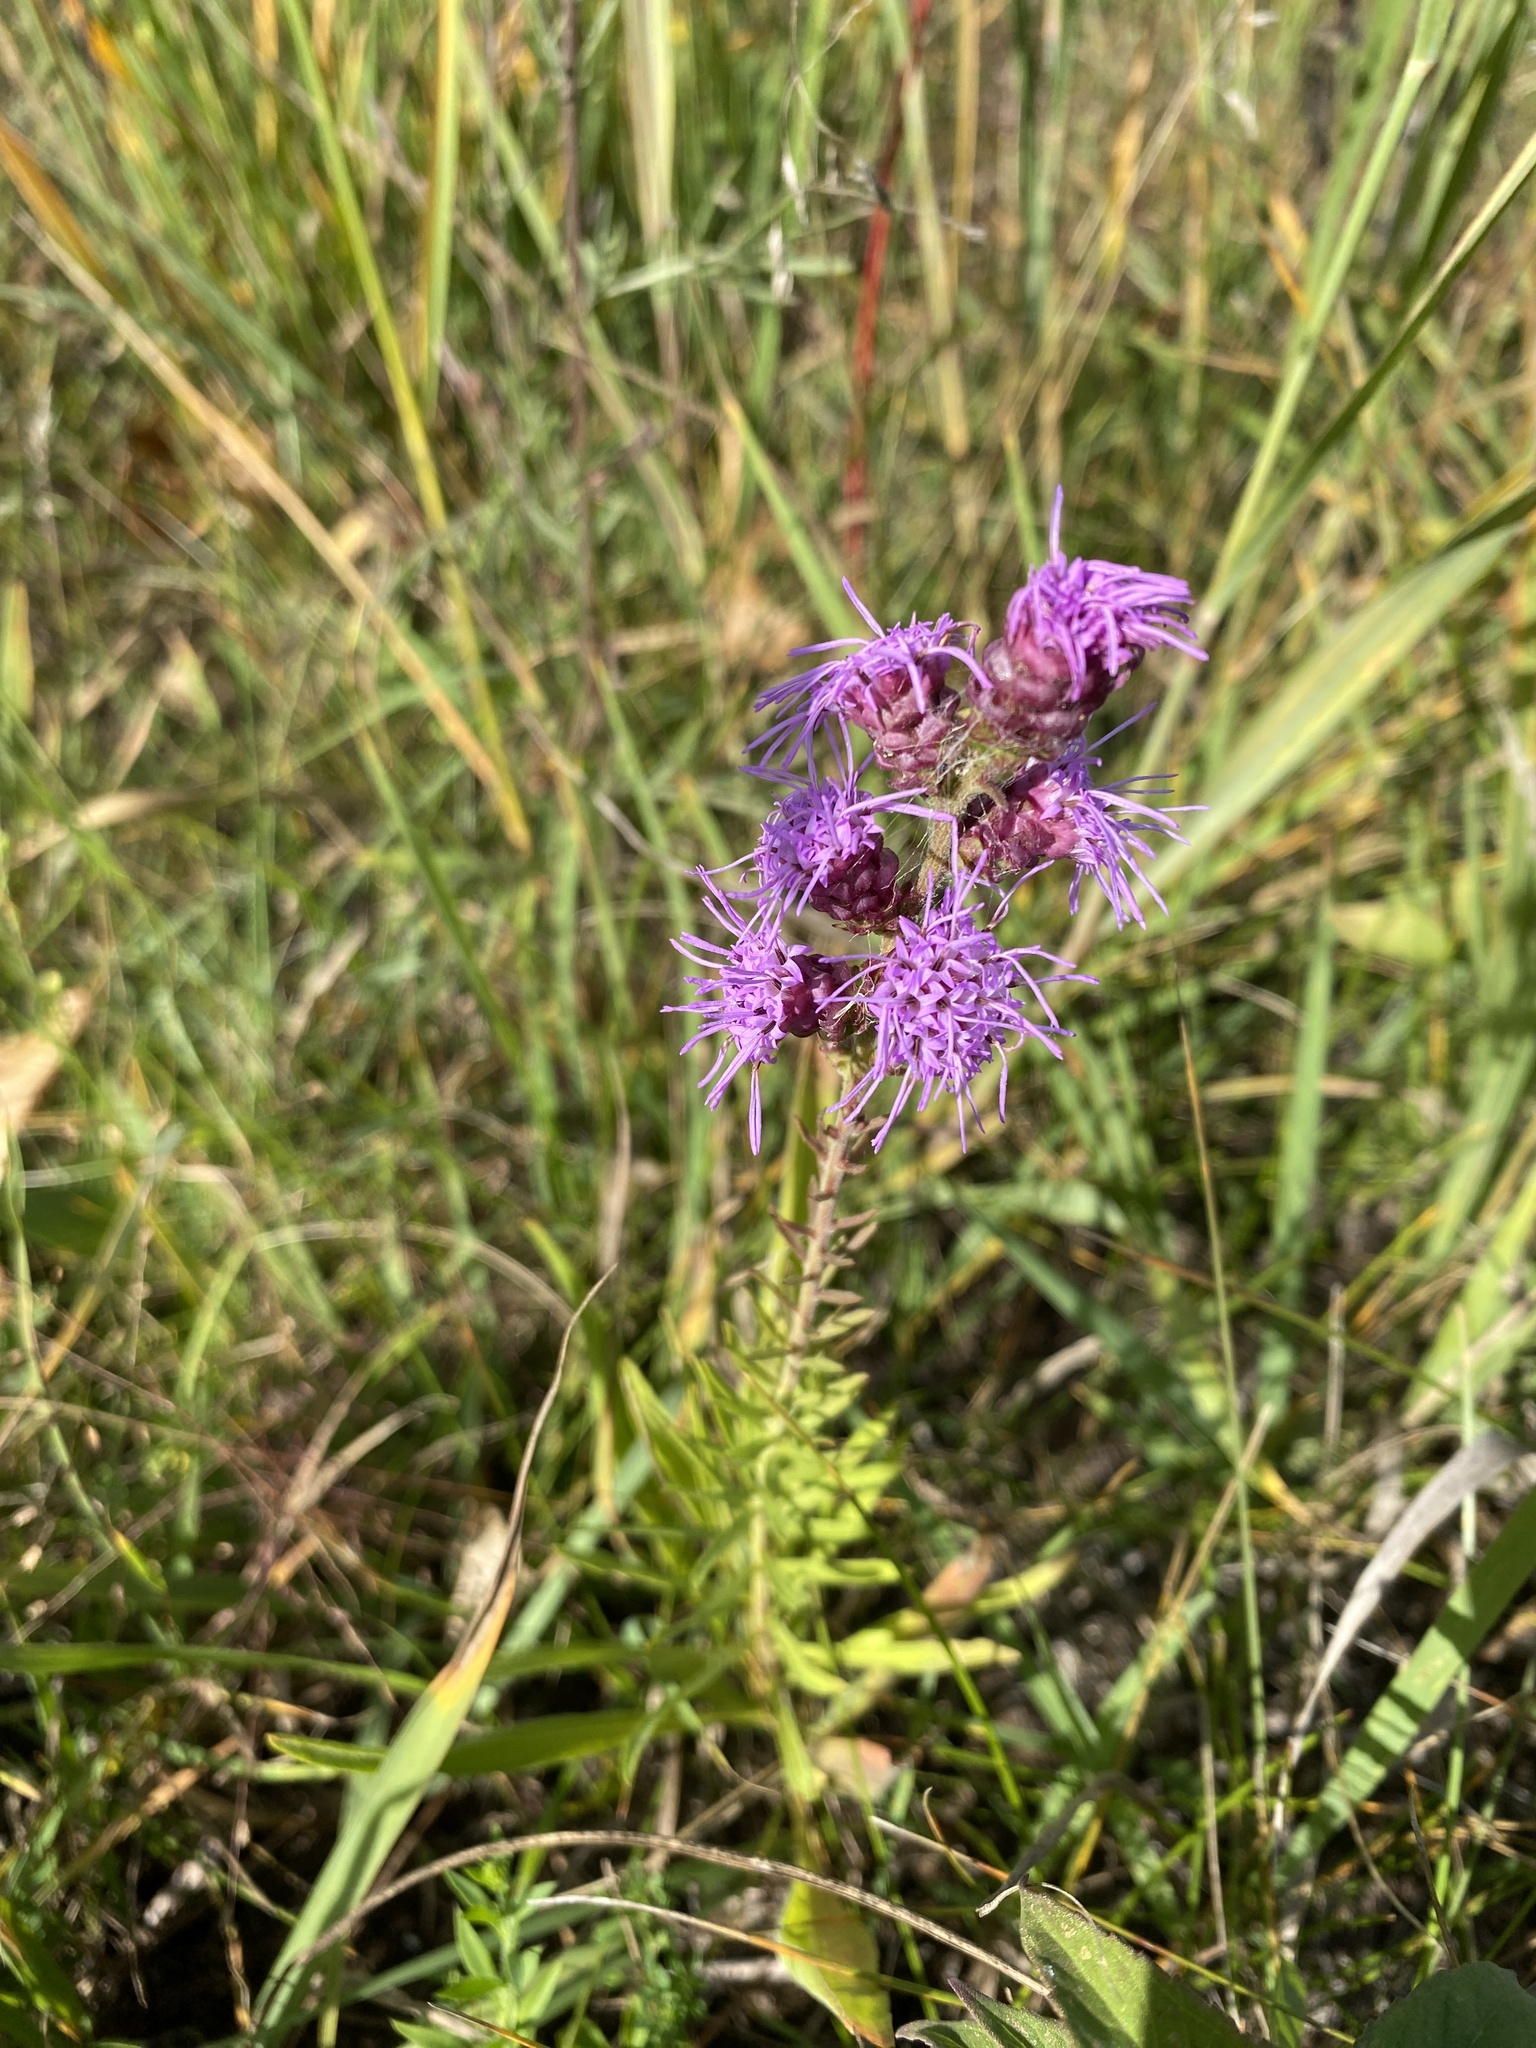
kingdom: Plantae
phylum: Tracheophyta
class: Magnoliopsida
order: Asterales
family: Asteraceae
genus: Liatris
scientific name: Liatris aspera
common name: Lacerate blazing-star
